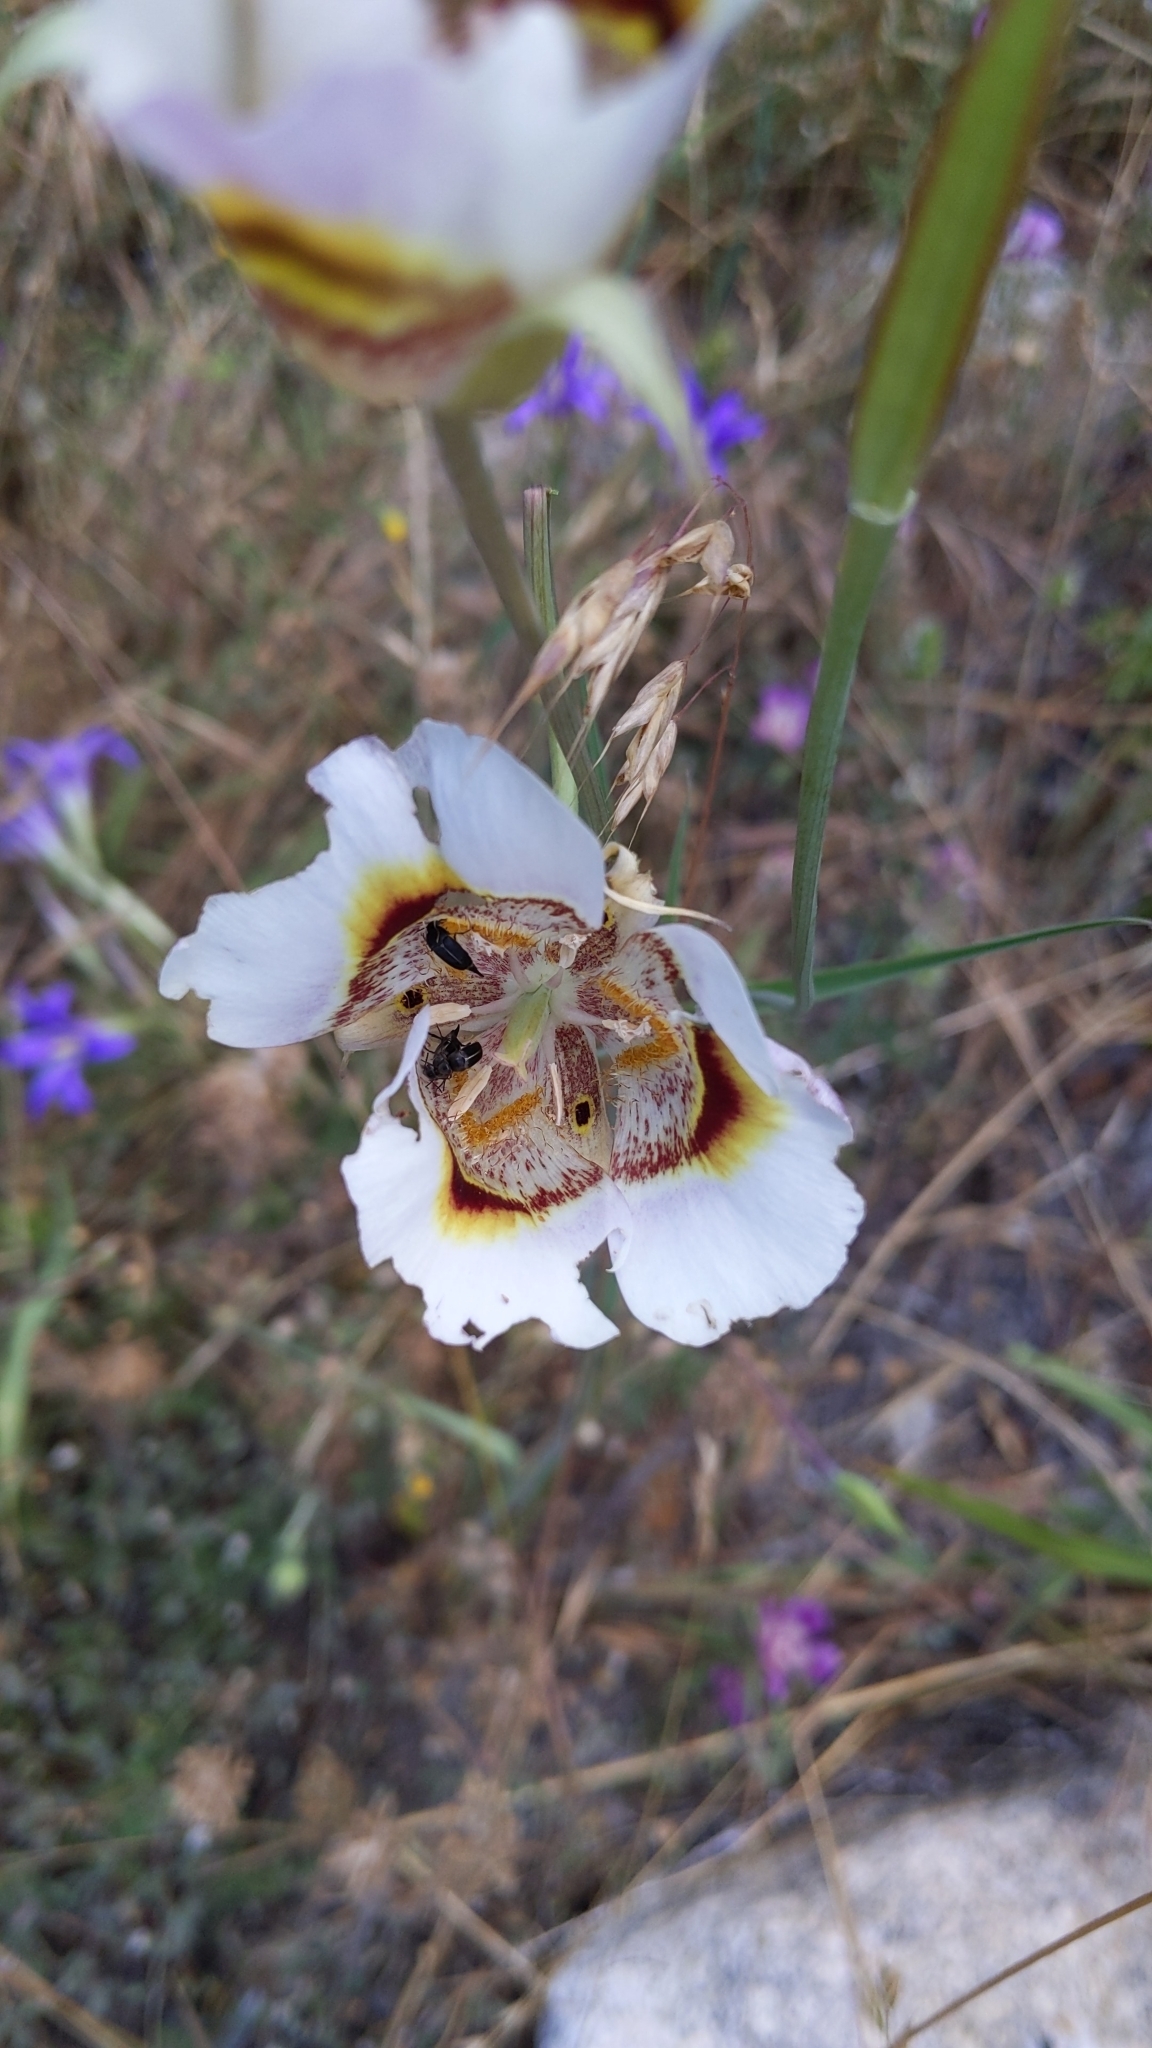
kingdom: Plantae
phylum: Tracheophyta
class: Liliopsida
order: Liliales
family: Liliaceae
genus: Calochortus
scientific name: Calochortus superbus
